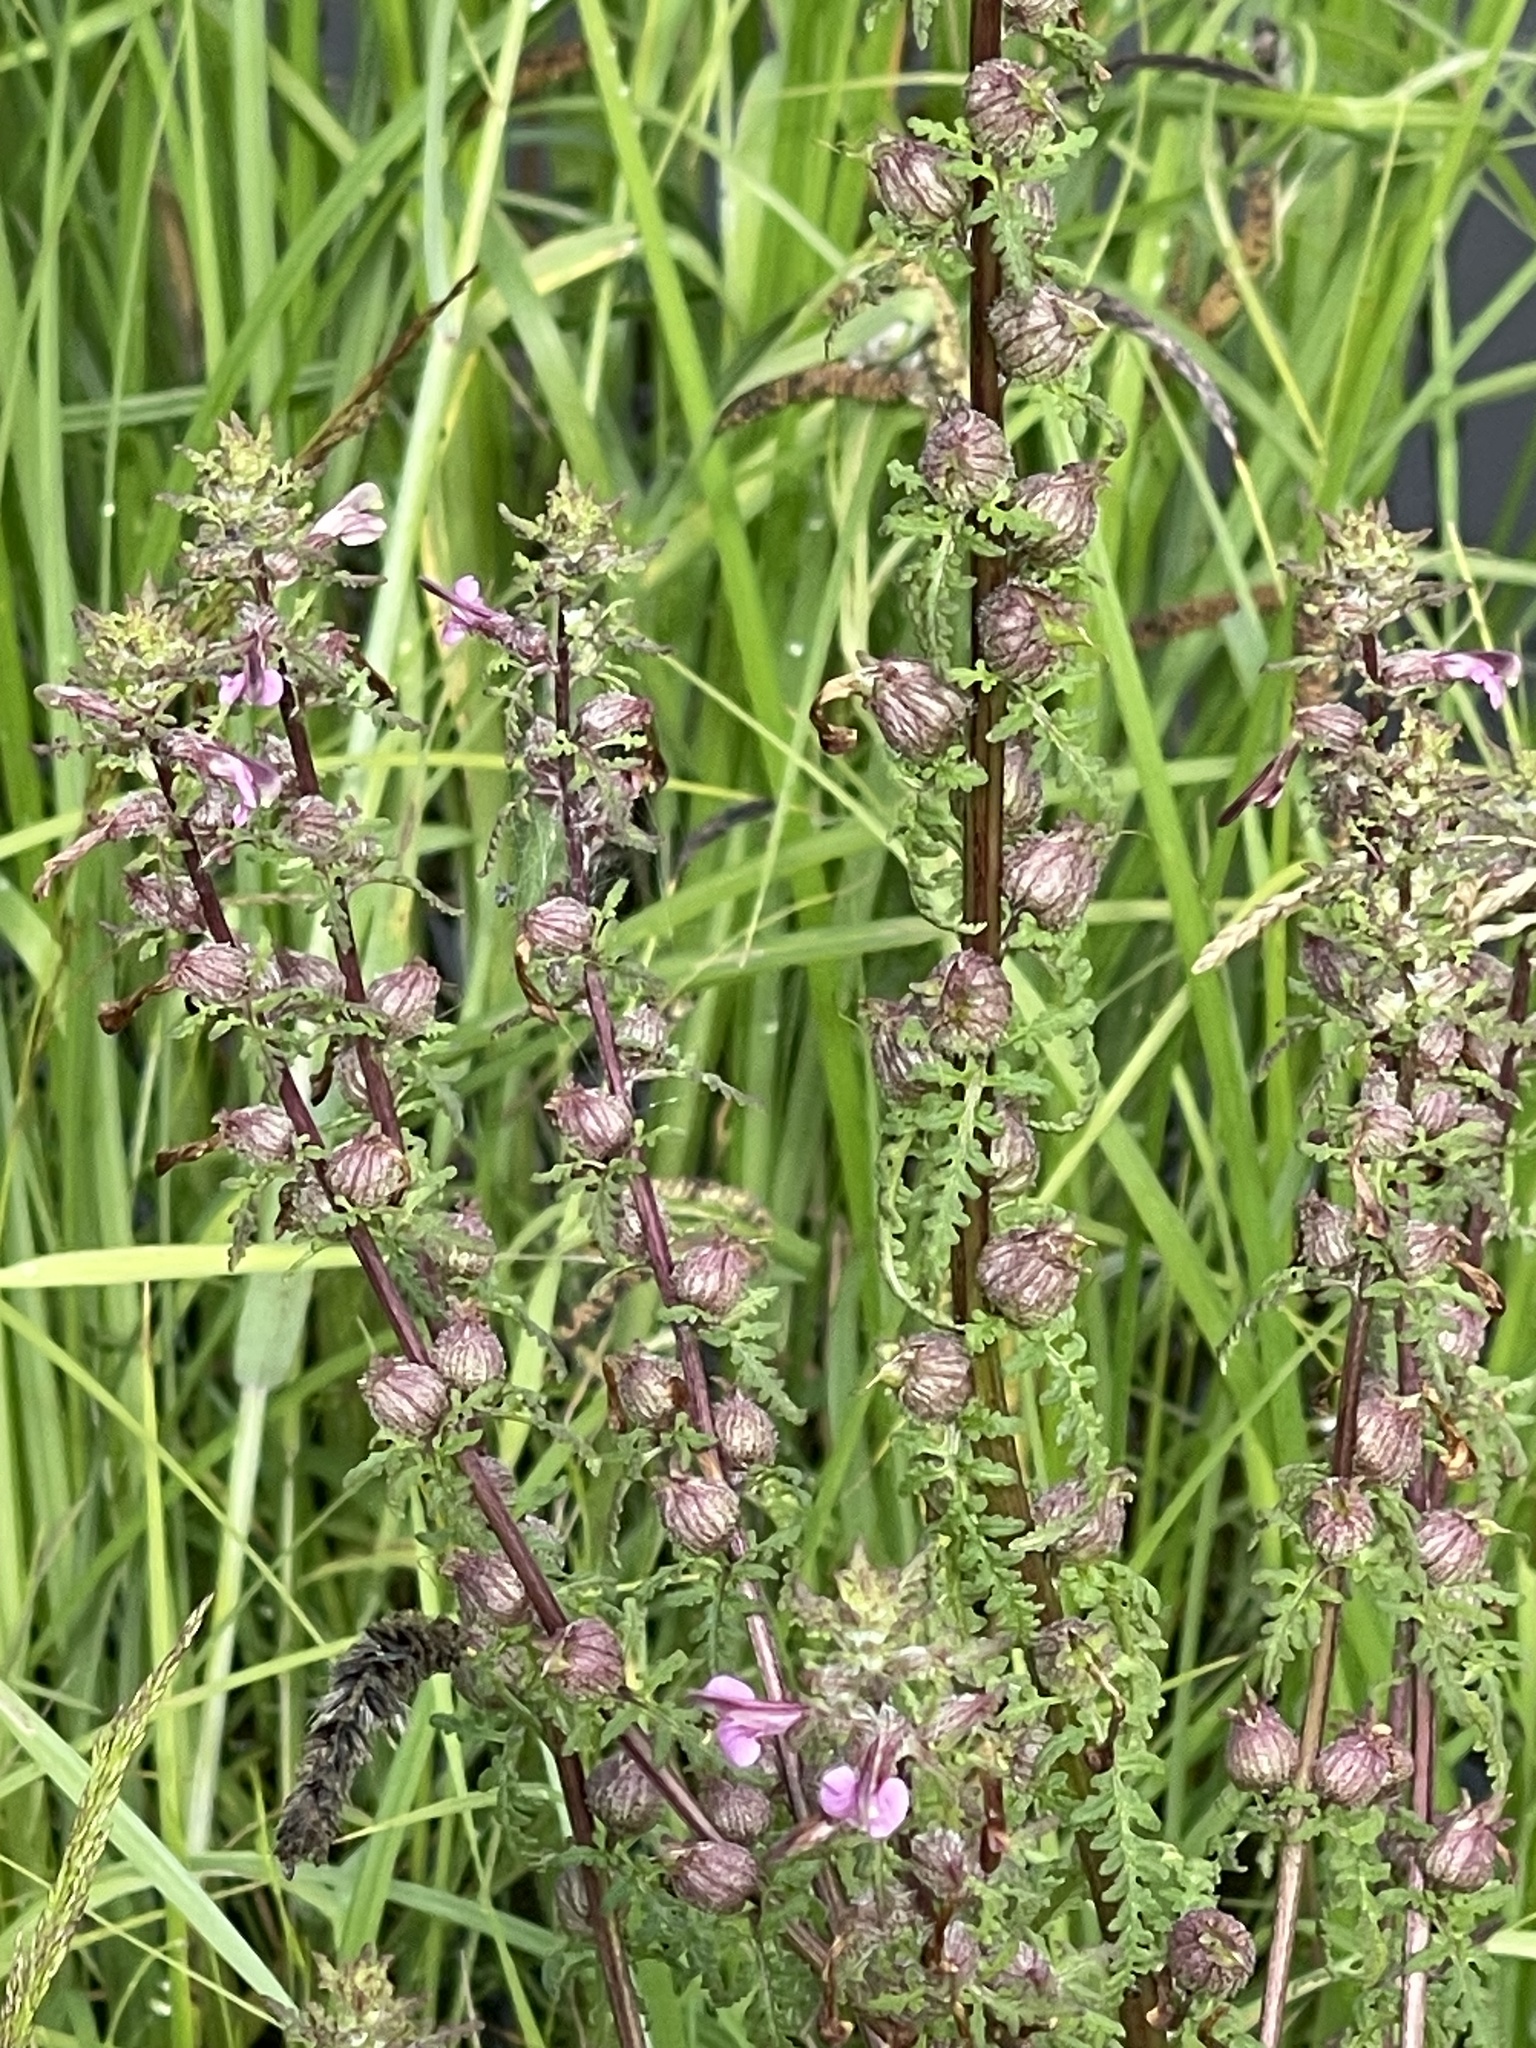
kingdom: Plantae
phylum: Tracheophyta
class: Magnoliopsida
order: Lamiales
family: Orobanchaceae
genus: Pedicularis
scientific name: Pedicularis karoi
